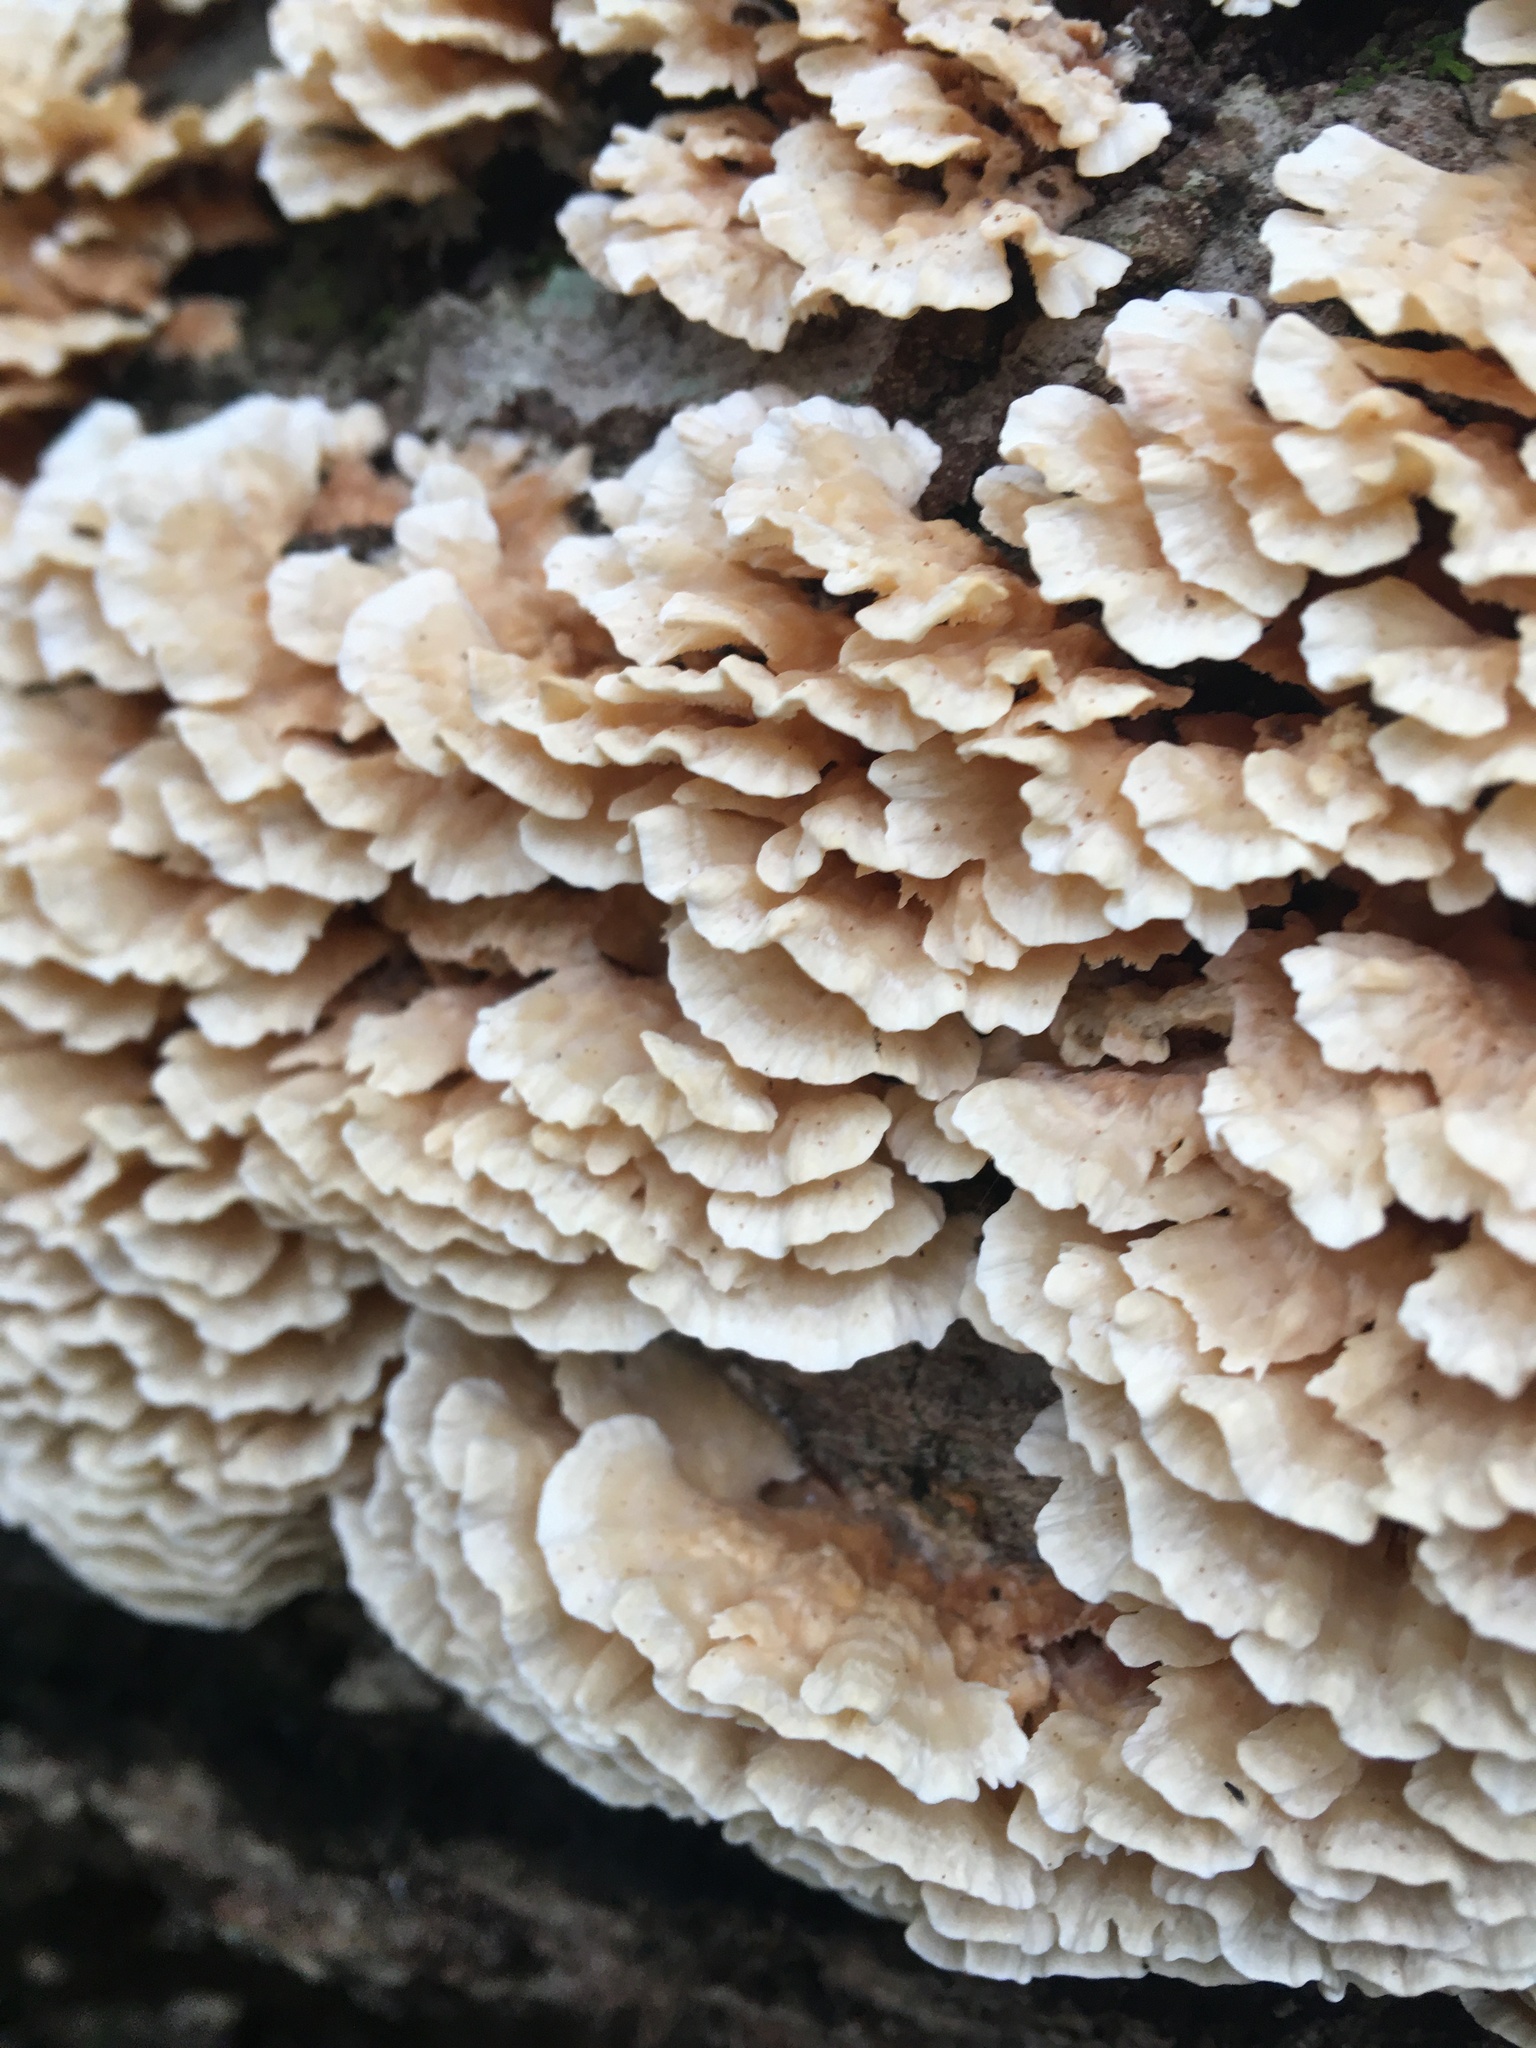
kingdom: Fungi
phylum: Basidiomycota
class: Agaricomycetes
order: Polyporales
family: Cerrenaceae
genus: Cerrena
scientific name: Cerrena zonata
